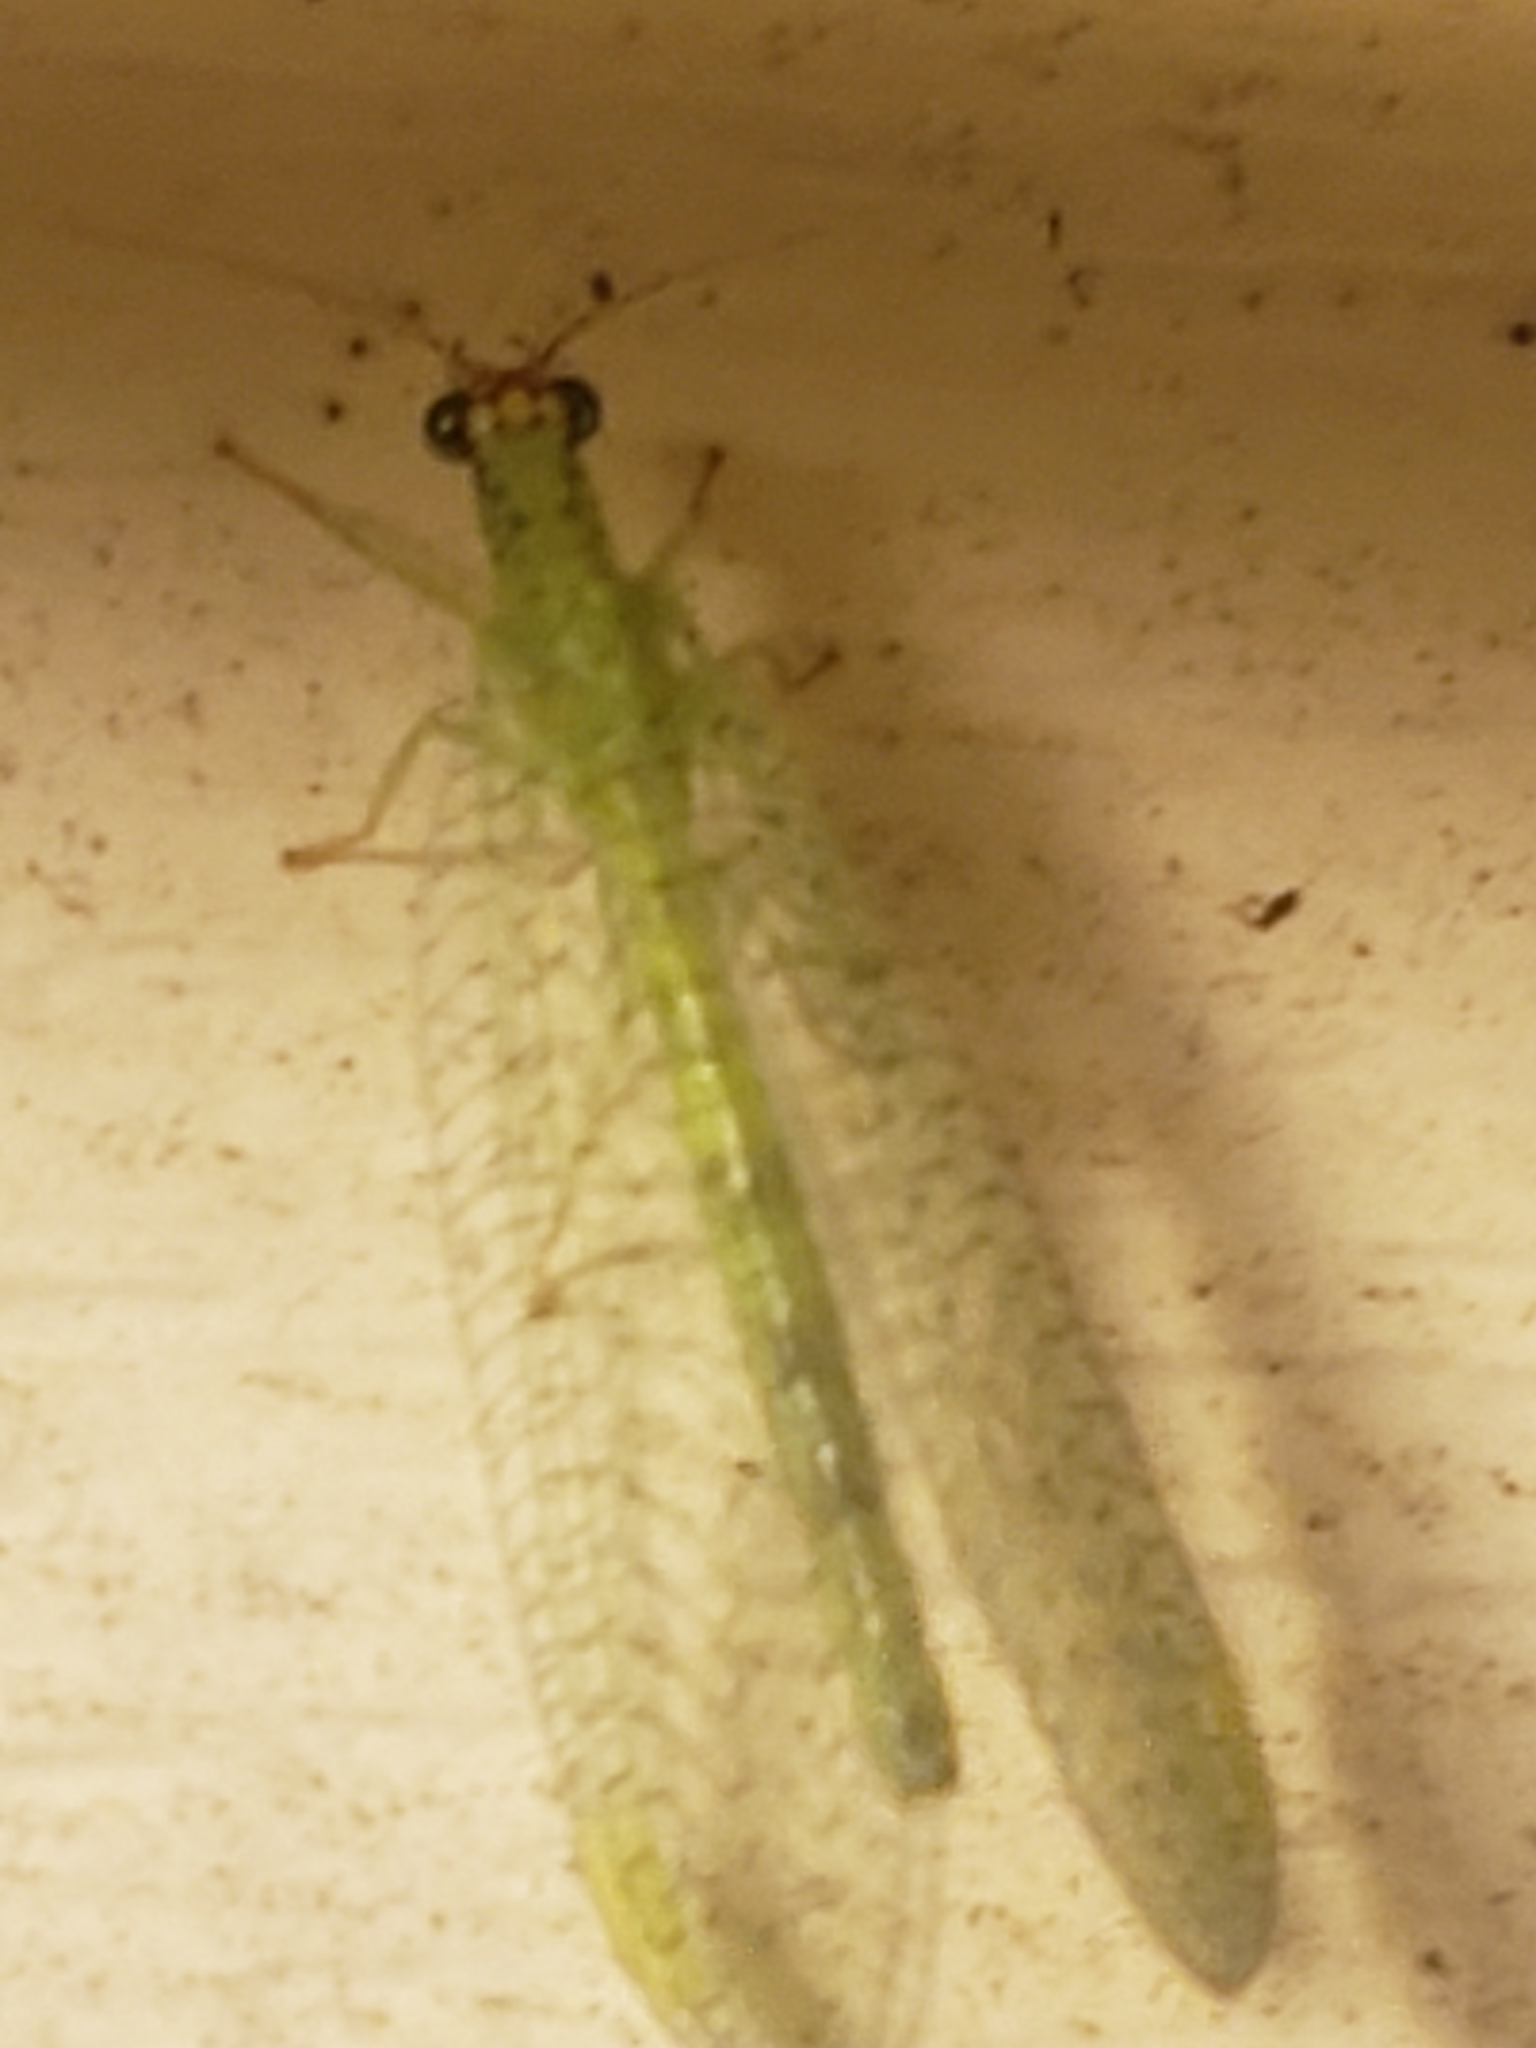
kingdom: Animalia
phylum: Arthropoda
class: Insecta
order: Neuroptera
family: Chrysopidae
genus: Chrysopa
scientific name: Chrysopa oculata
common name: Golden-eyed lacewing
